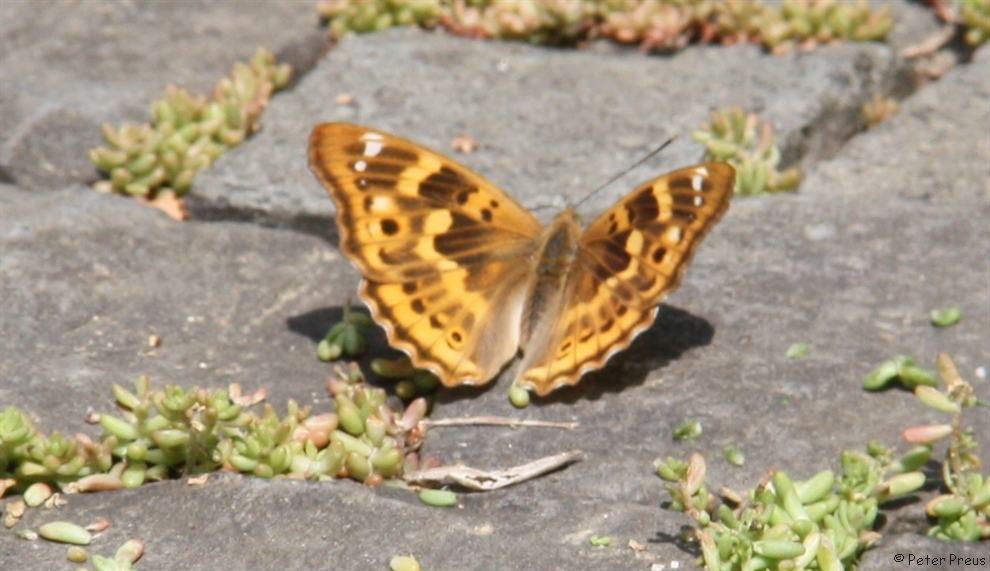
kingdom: Animalia
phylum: Arthropoda
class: Insecta
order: Lepidoptera
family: Nymphalidae
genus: Apatura
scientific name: Apatura ilia
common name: Lesser purple emperor
